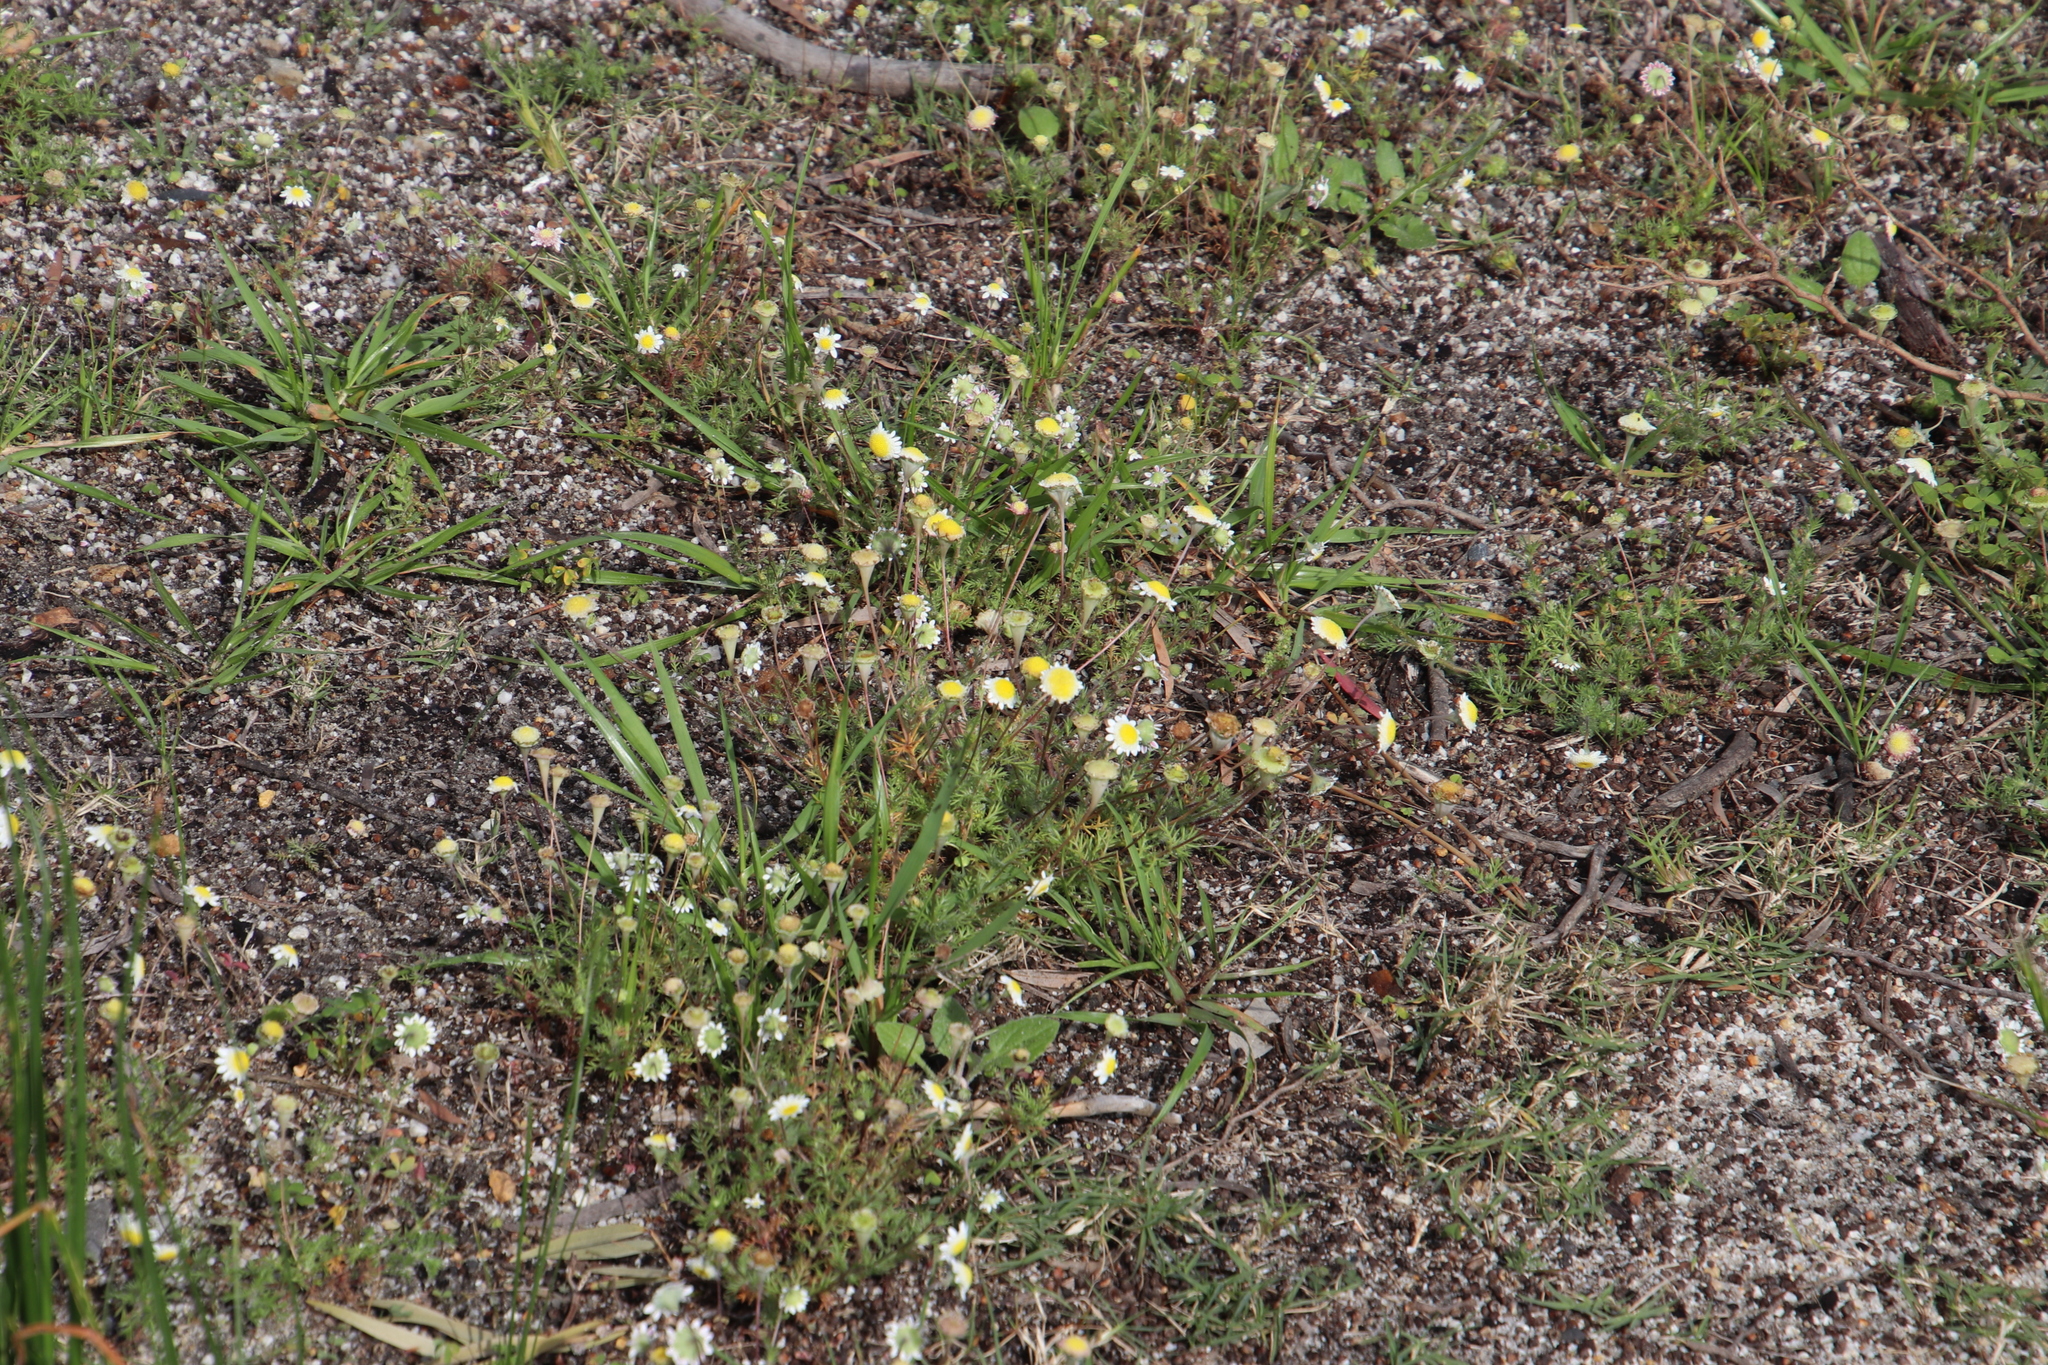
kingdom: Plantae
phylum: Tracheophyta
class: Magnoliopsida
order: Asterales
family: Asteraceae
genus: Cotula
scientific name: Cotula turbinata
